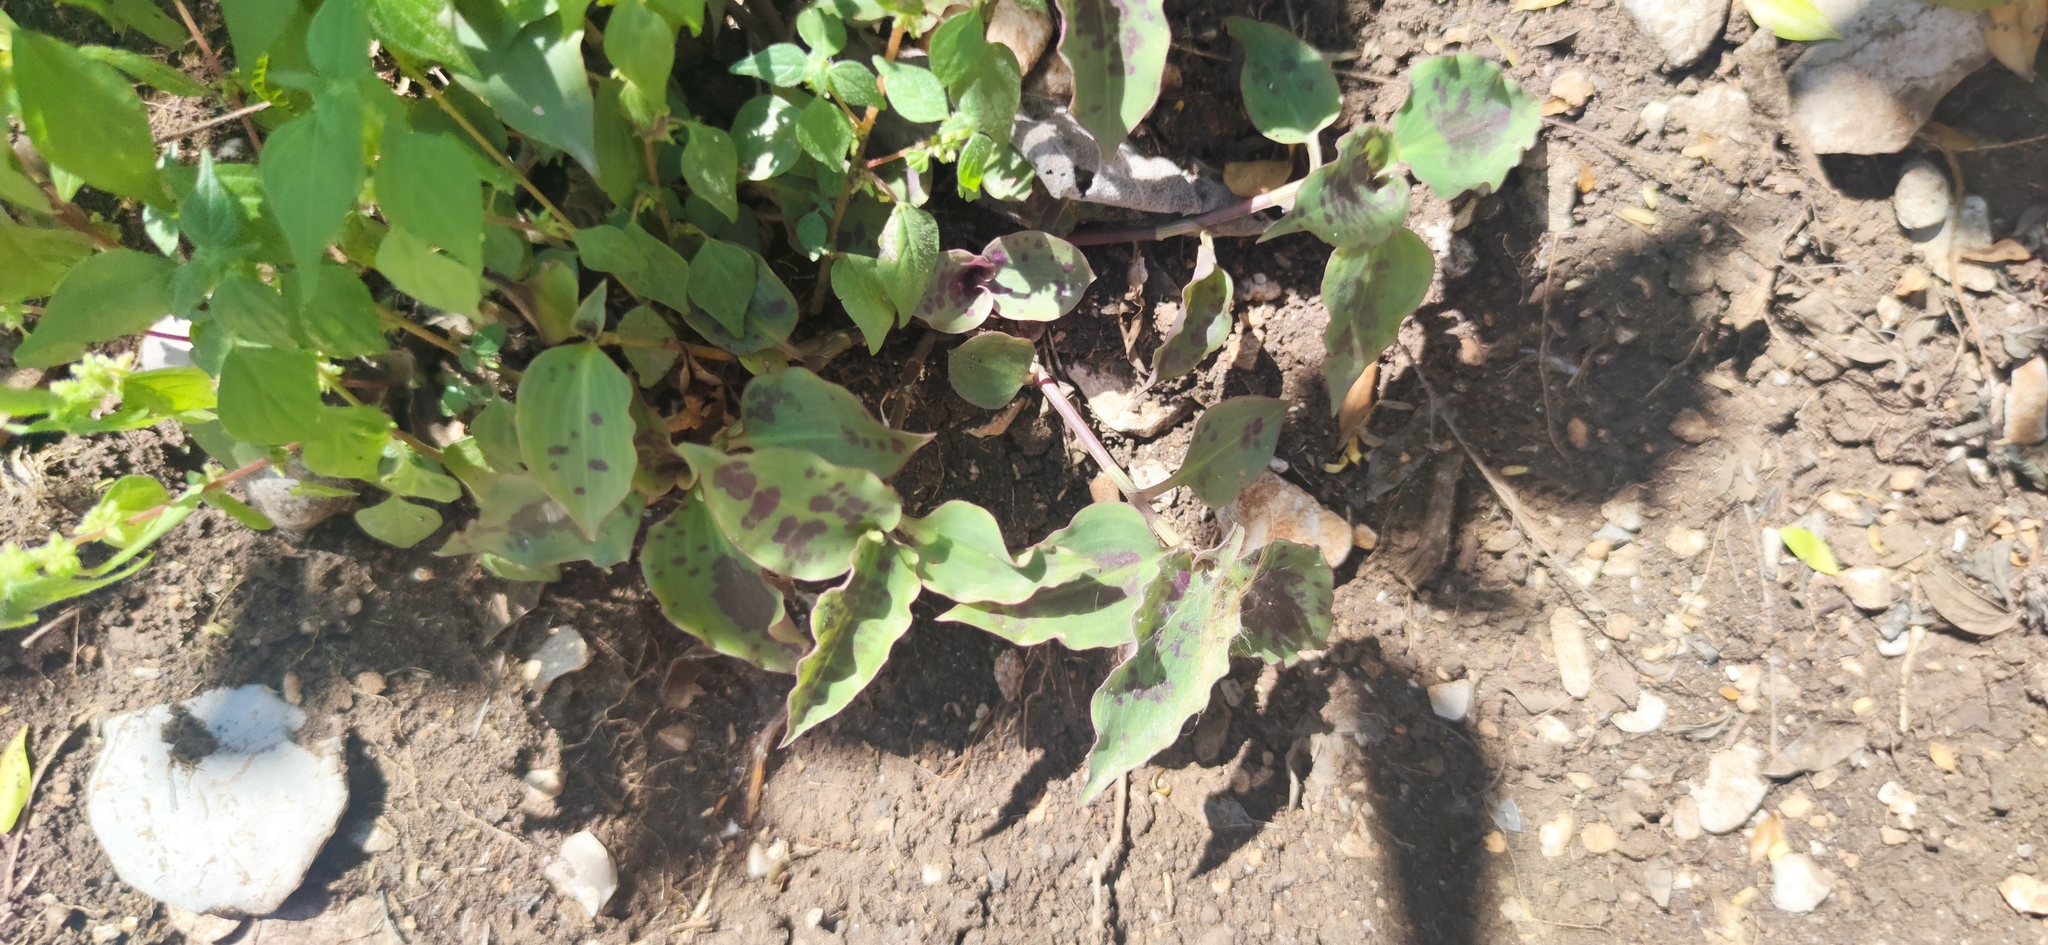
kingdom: Plantae
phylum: Tracheophyta
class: Liliopsida
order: Commelinales
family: Commelinaceae
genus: Tinantia
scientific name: Tinantia pringlei
